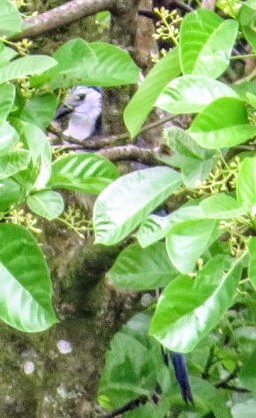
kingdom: Animalia
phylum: Chordata
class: Aves
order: Passeriformes
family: Corvidae
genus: Calocitta
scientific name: Calocitta formosa
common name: White-throated magpie-jay
